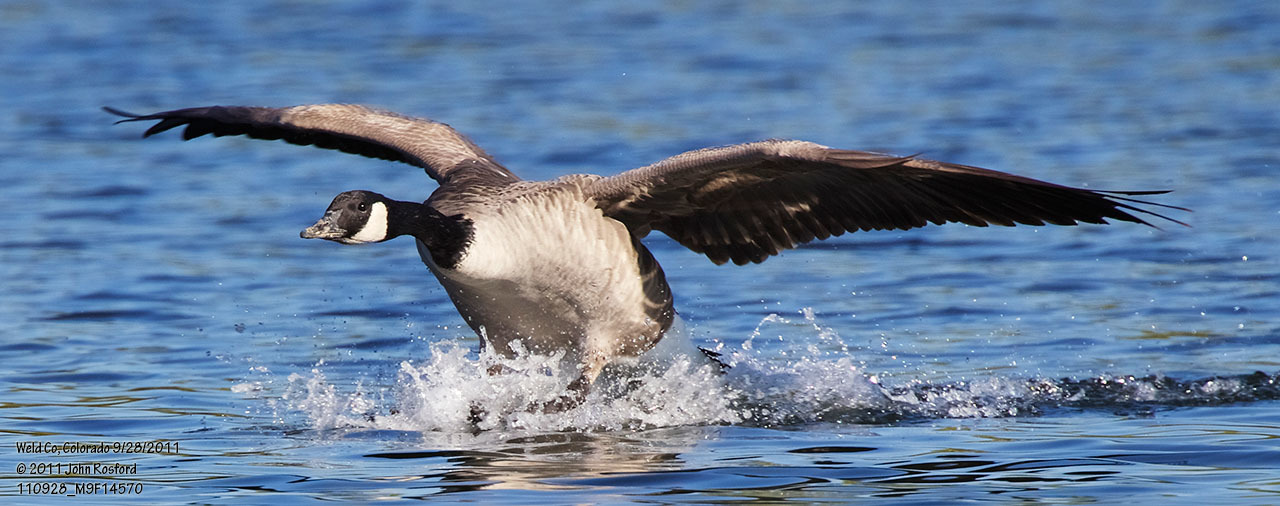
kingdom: Animalia
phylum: Chordata
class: Aves
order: Anseriformes
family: Anatidae
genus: Branta
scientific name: Branta canadensis
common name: Canada goose
